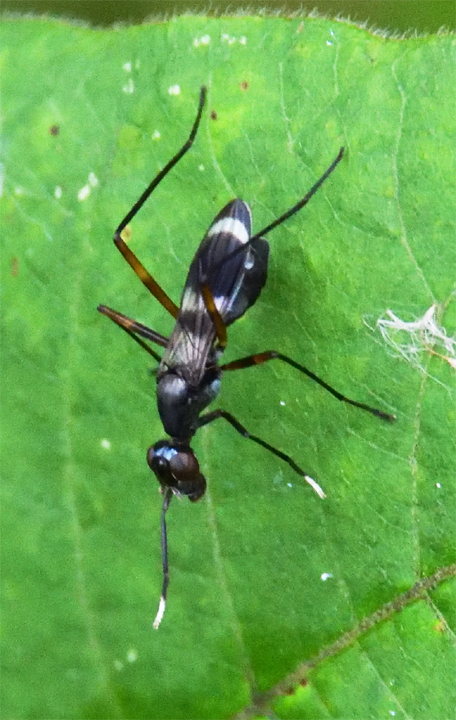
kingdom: Animalia
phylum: Arthropoda
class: Insecta
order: Diptera
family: Micropezidae
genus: Taeniaptera
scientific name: Taeniaptera trivittata
